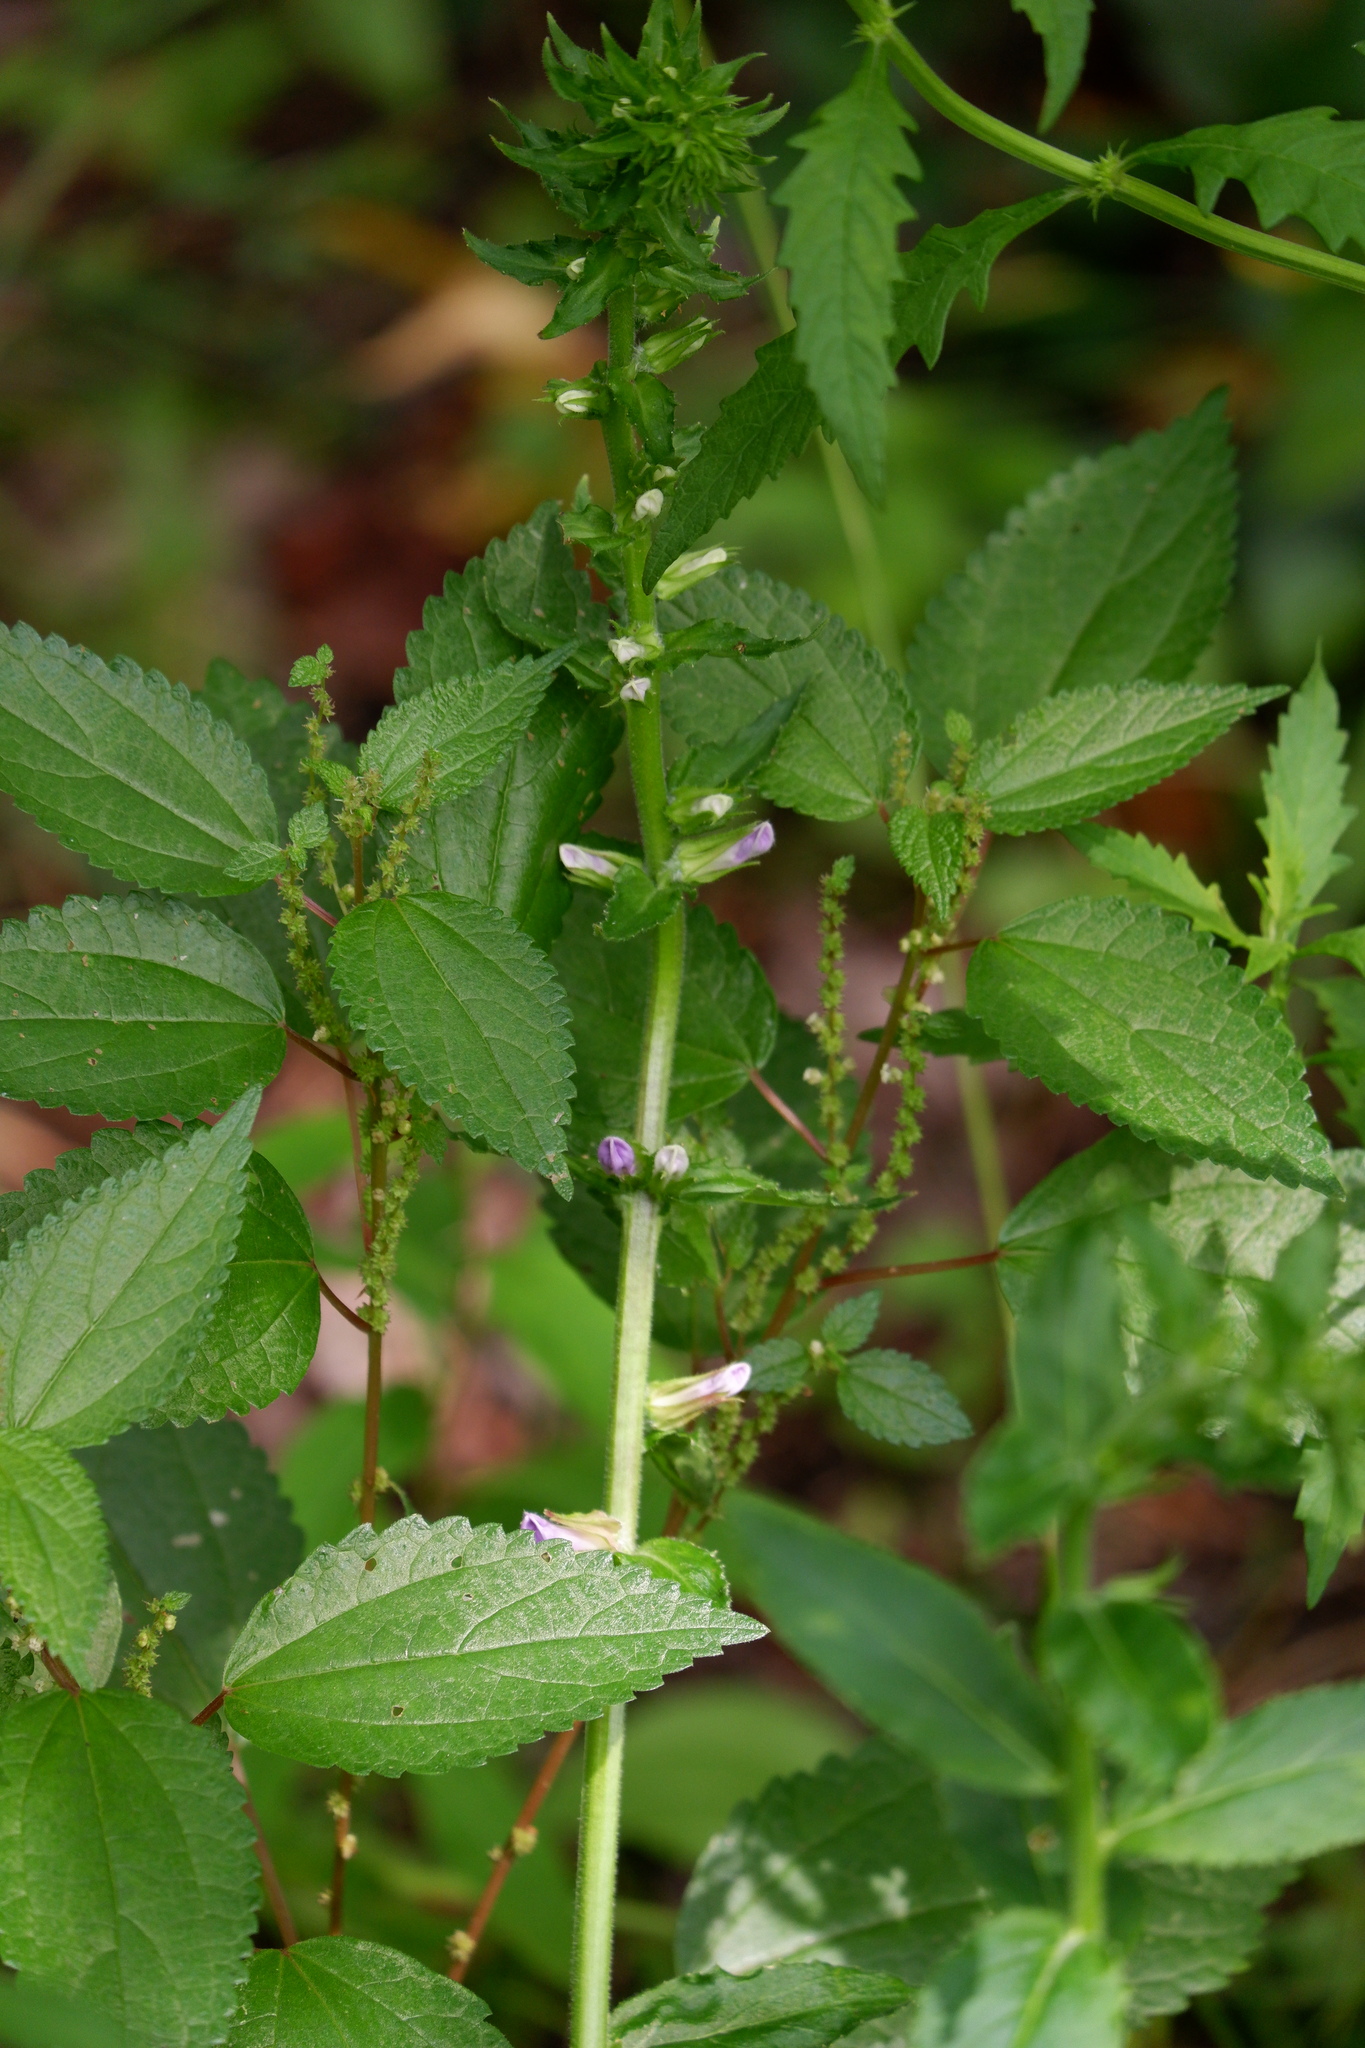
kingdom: Plantae
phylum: Tracheophyta
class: Magnoliopsida
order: Asterales
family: Campanulaceae
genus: Lobelia
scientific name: Lobelia puberula
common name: Purple dewdrop
